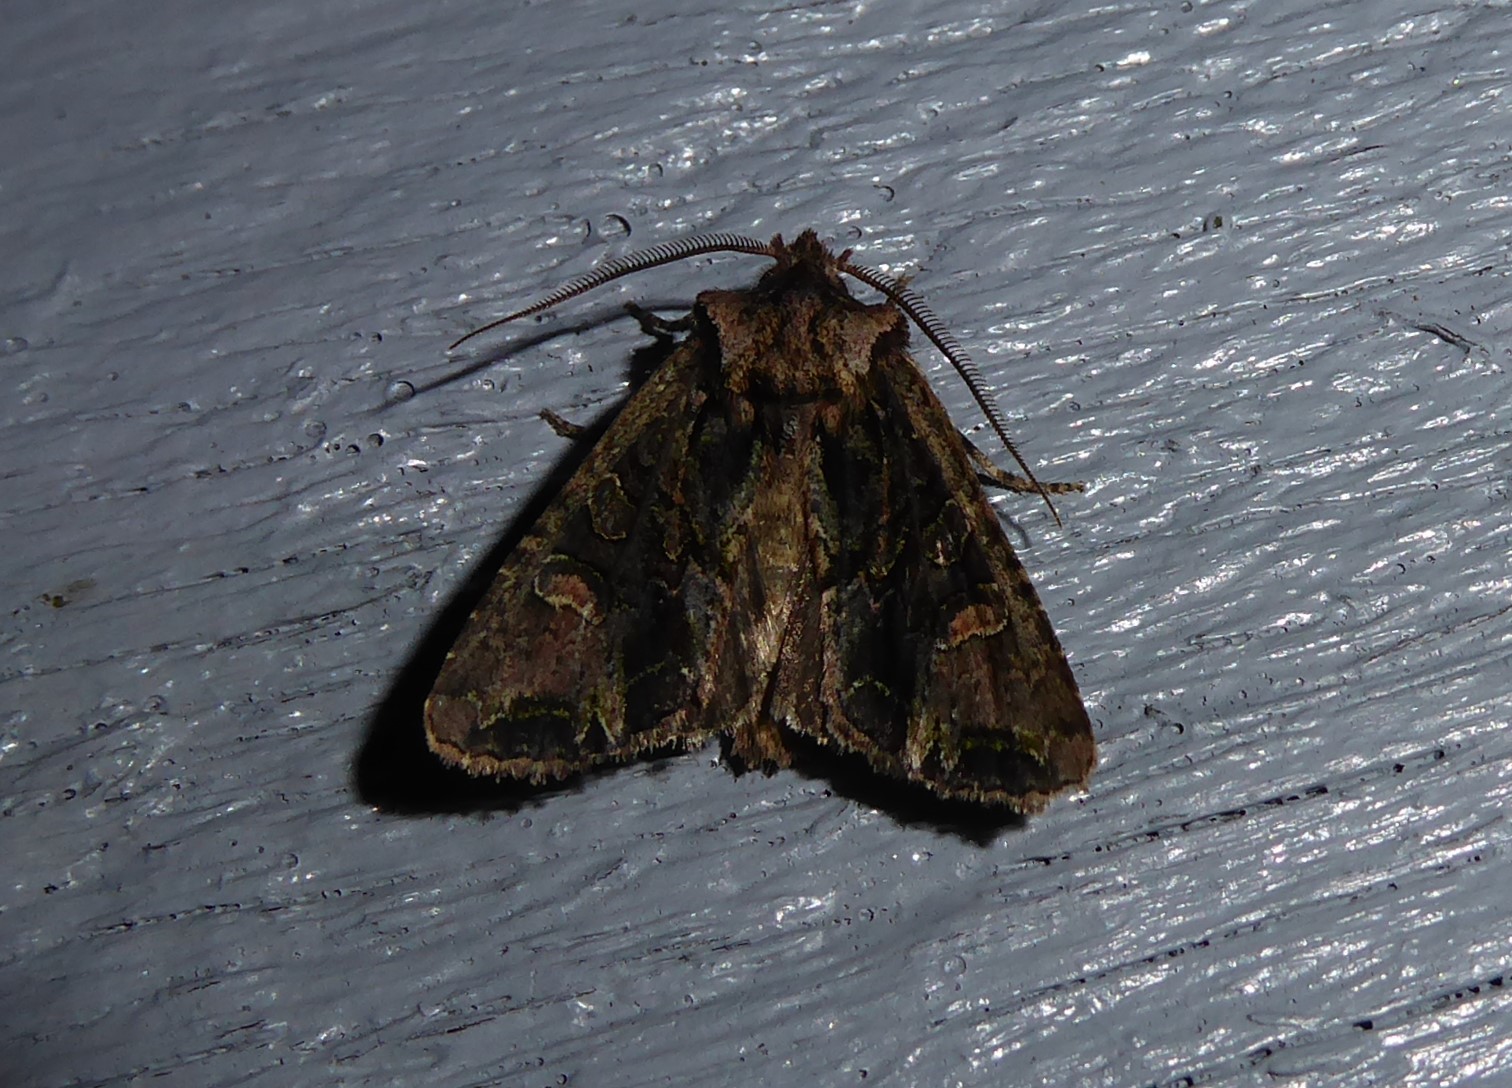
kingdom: Animalia
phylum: Arthropoda
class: Insecta
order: Lepidoptera
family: Noctuidae
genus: Ichneutica
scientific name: Ichneutica insignis
